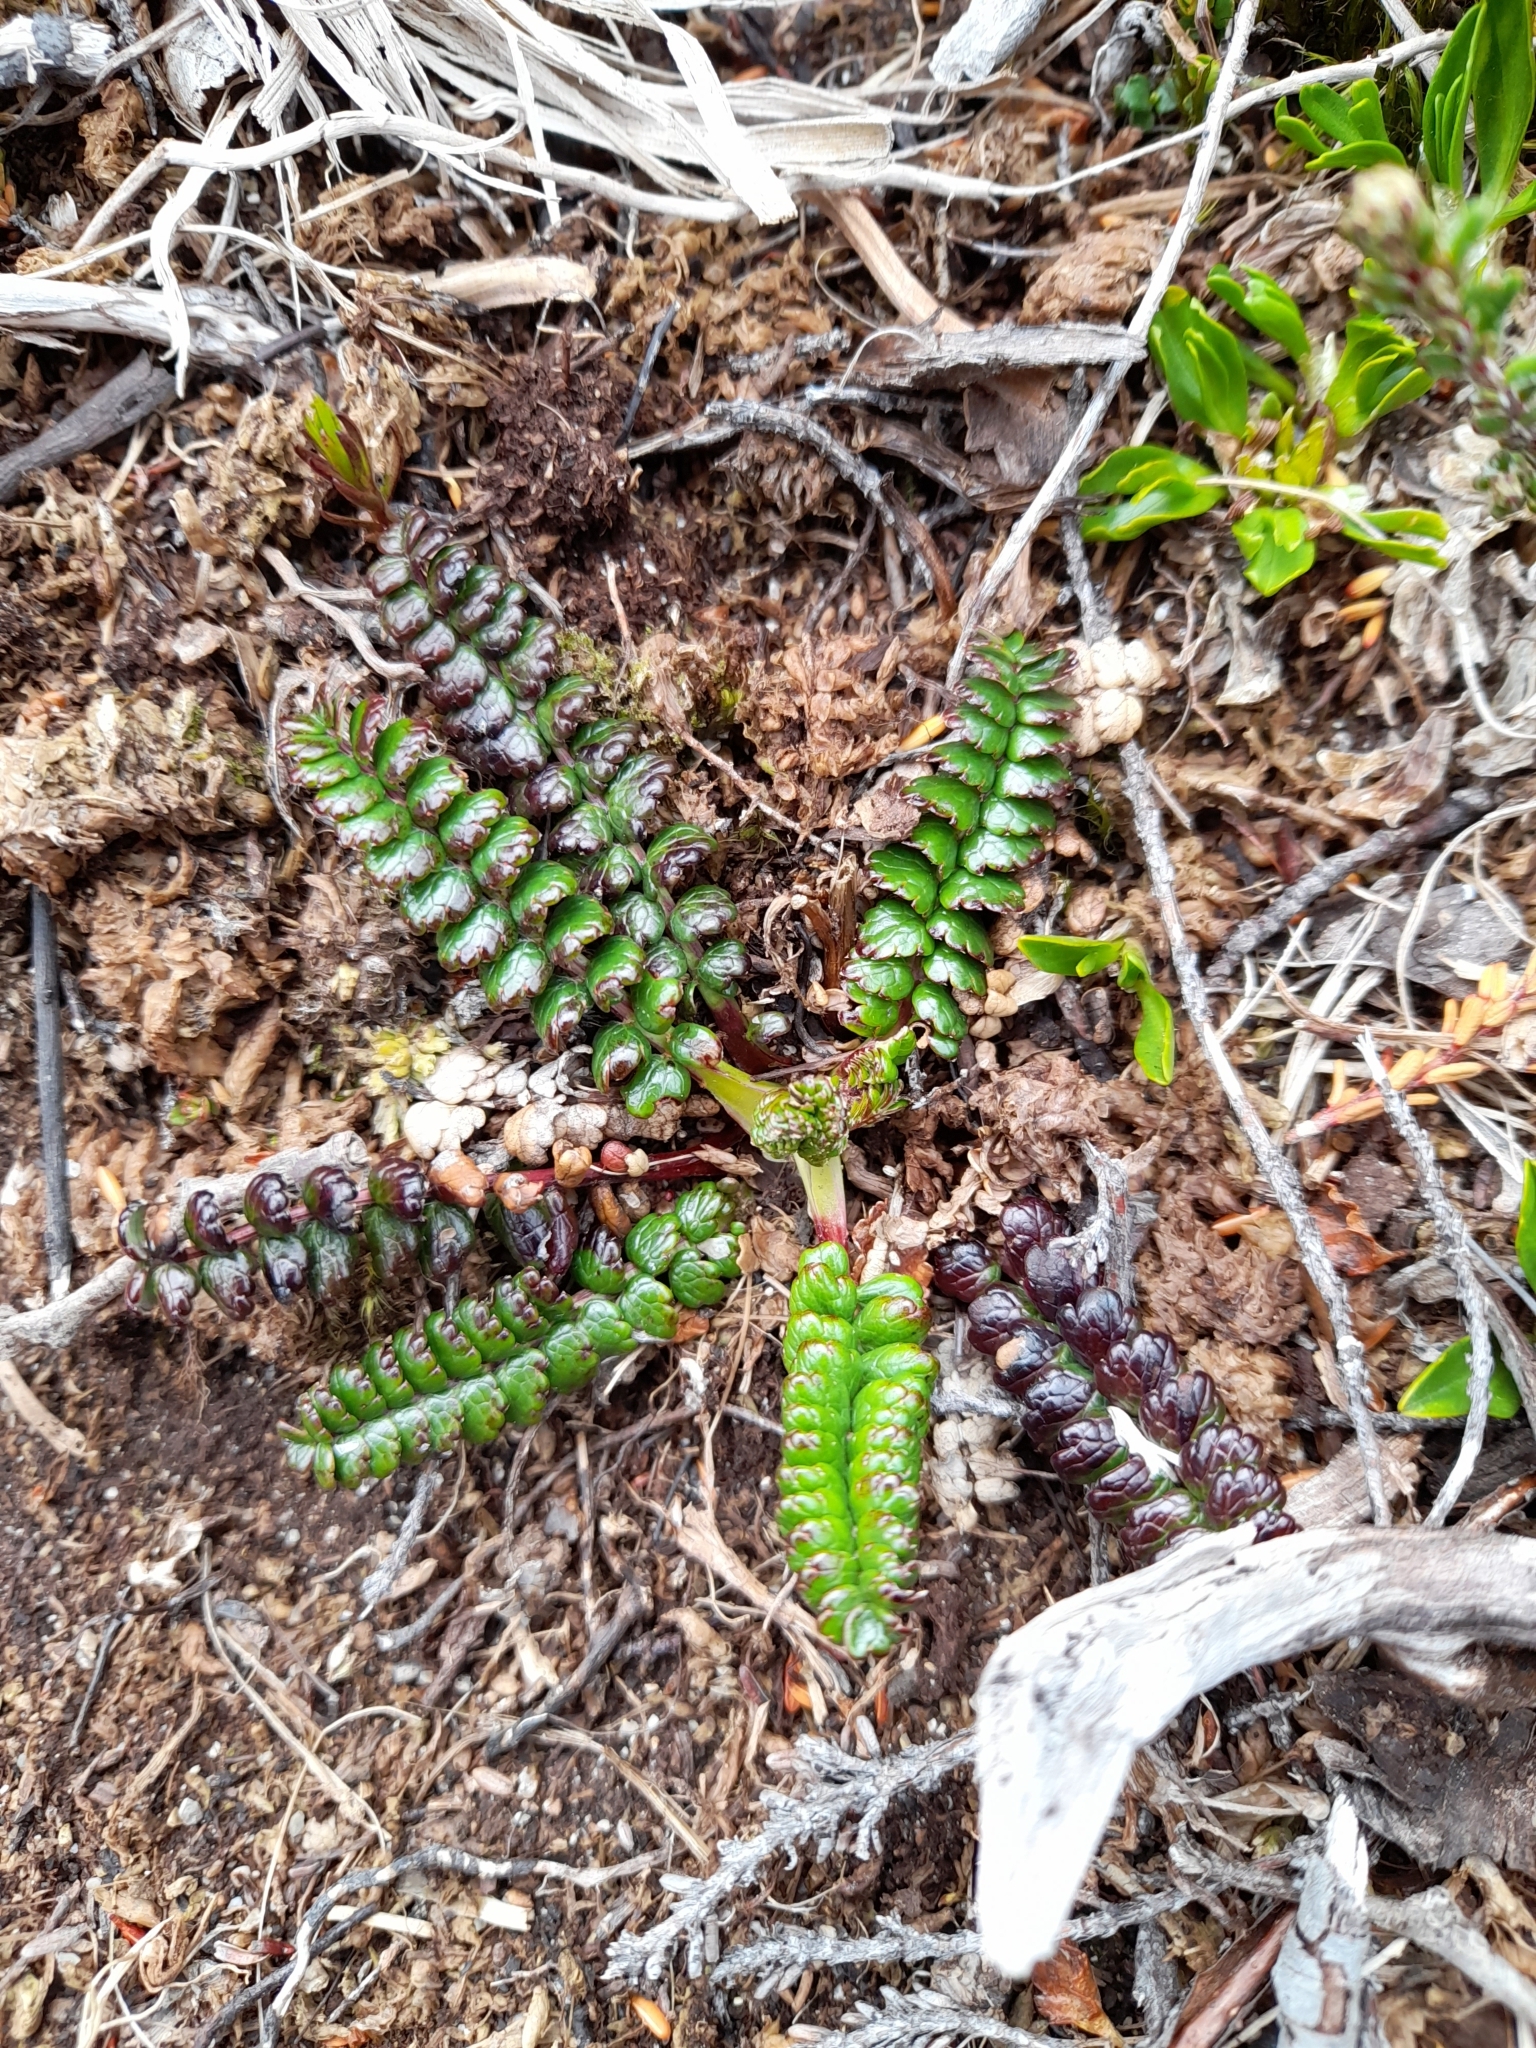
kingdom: Plantae
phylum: Tracheophyta
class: Magnoliopsida
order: Rosales
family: Rosaceae
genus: Acaena
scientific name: Acaena pumila
